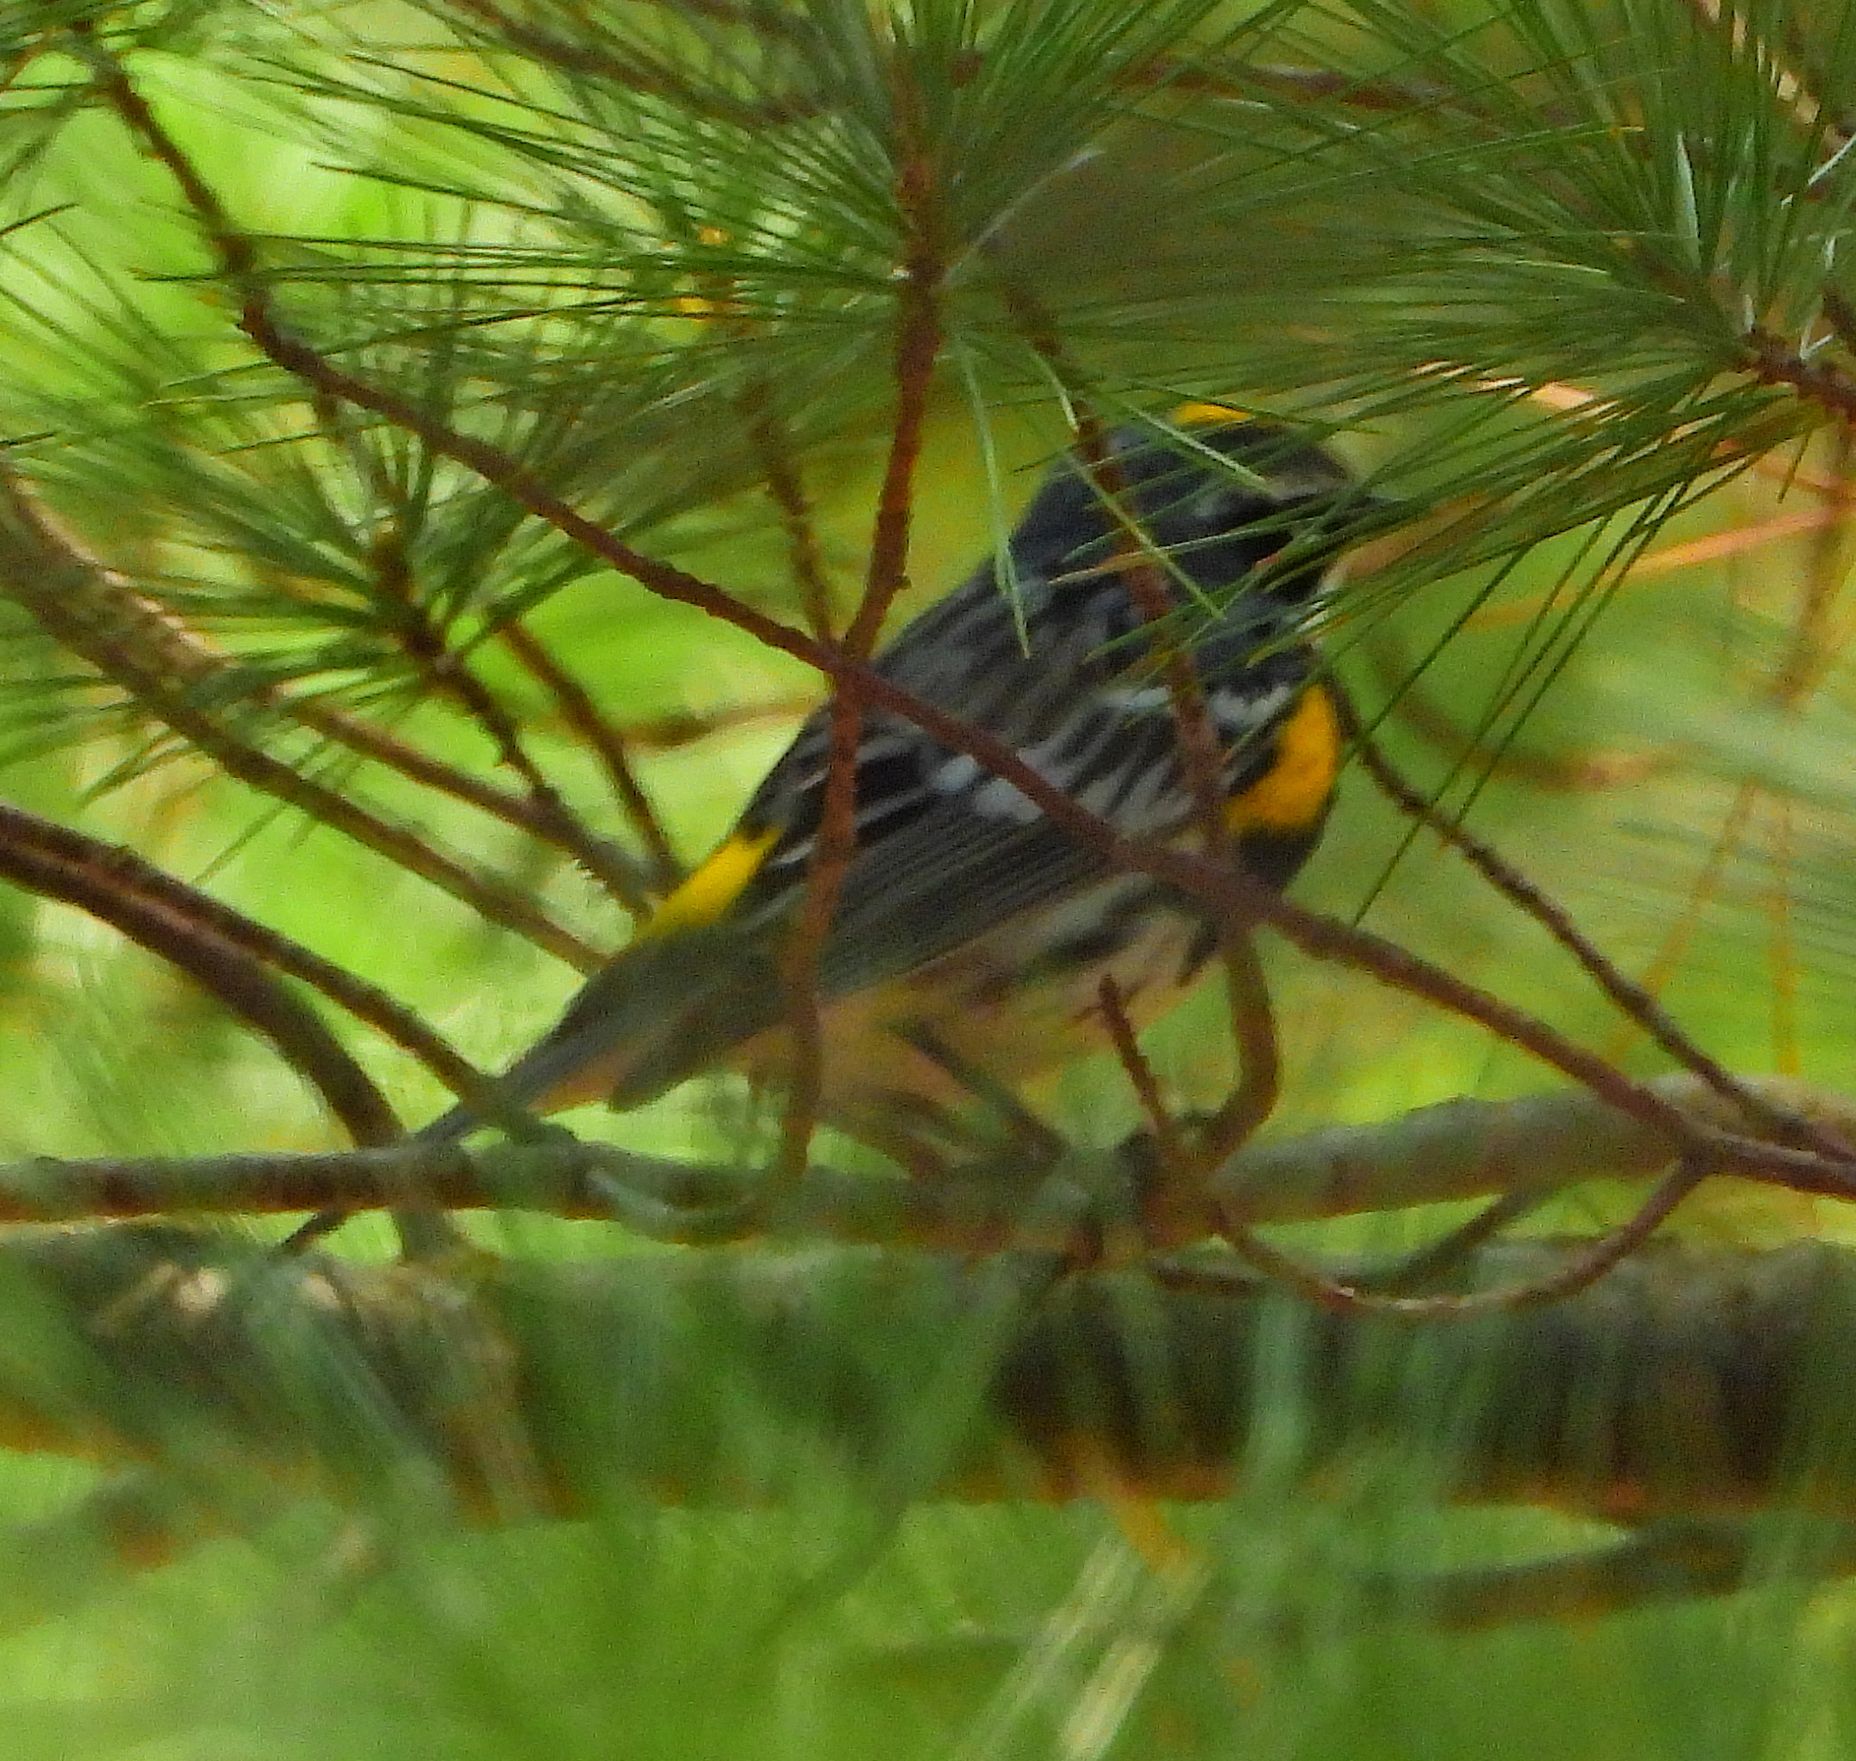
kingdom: Animalia
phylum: Chordata
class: Aves
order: Passeriformes
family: Parulidae
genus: Setophaga
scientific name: Setophaga coronata
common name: Myrtle warbler
